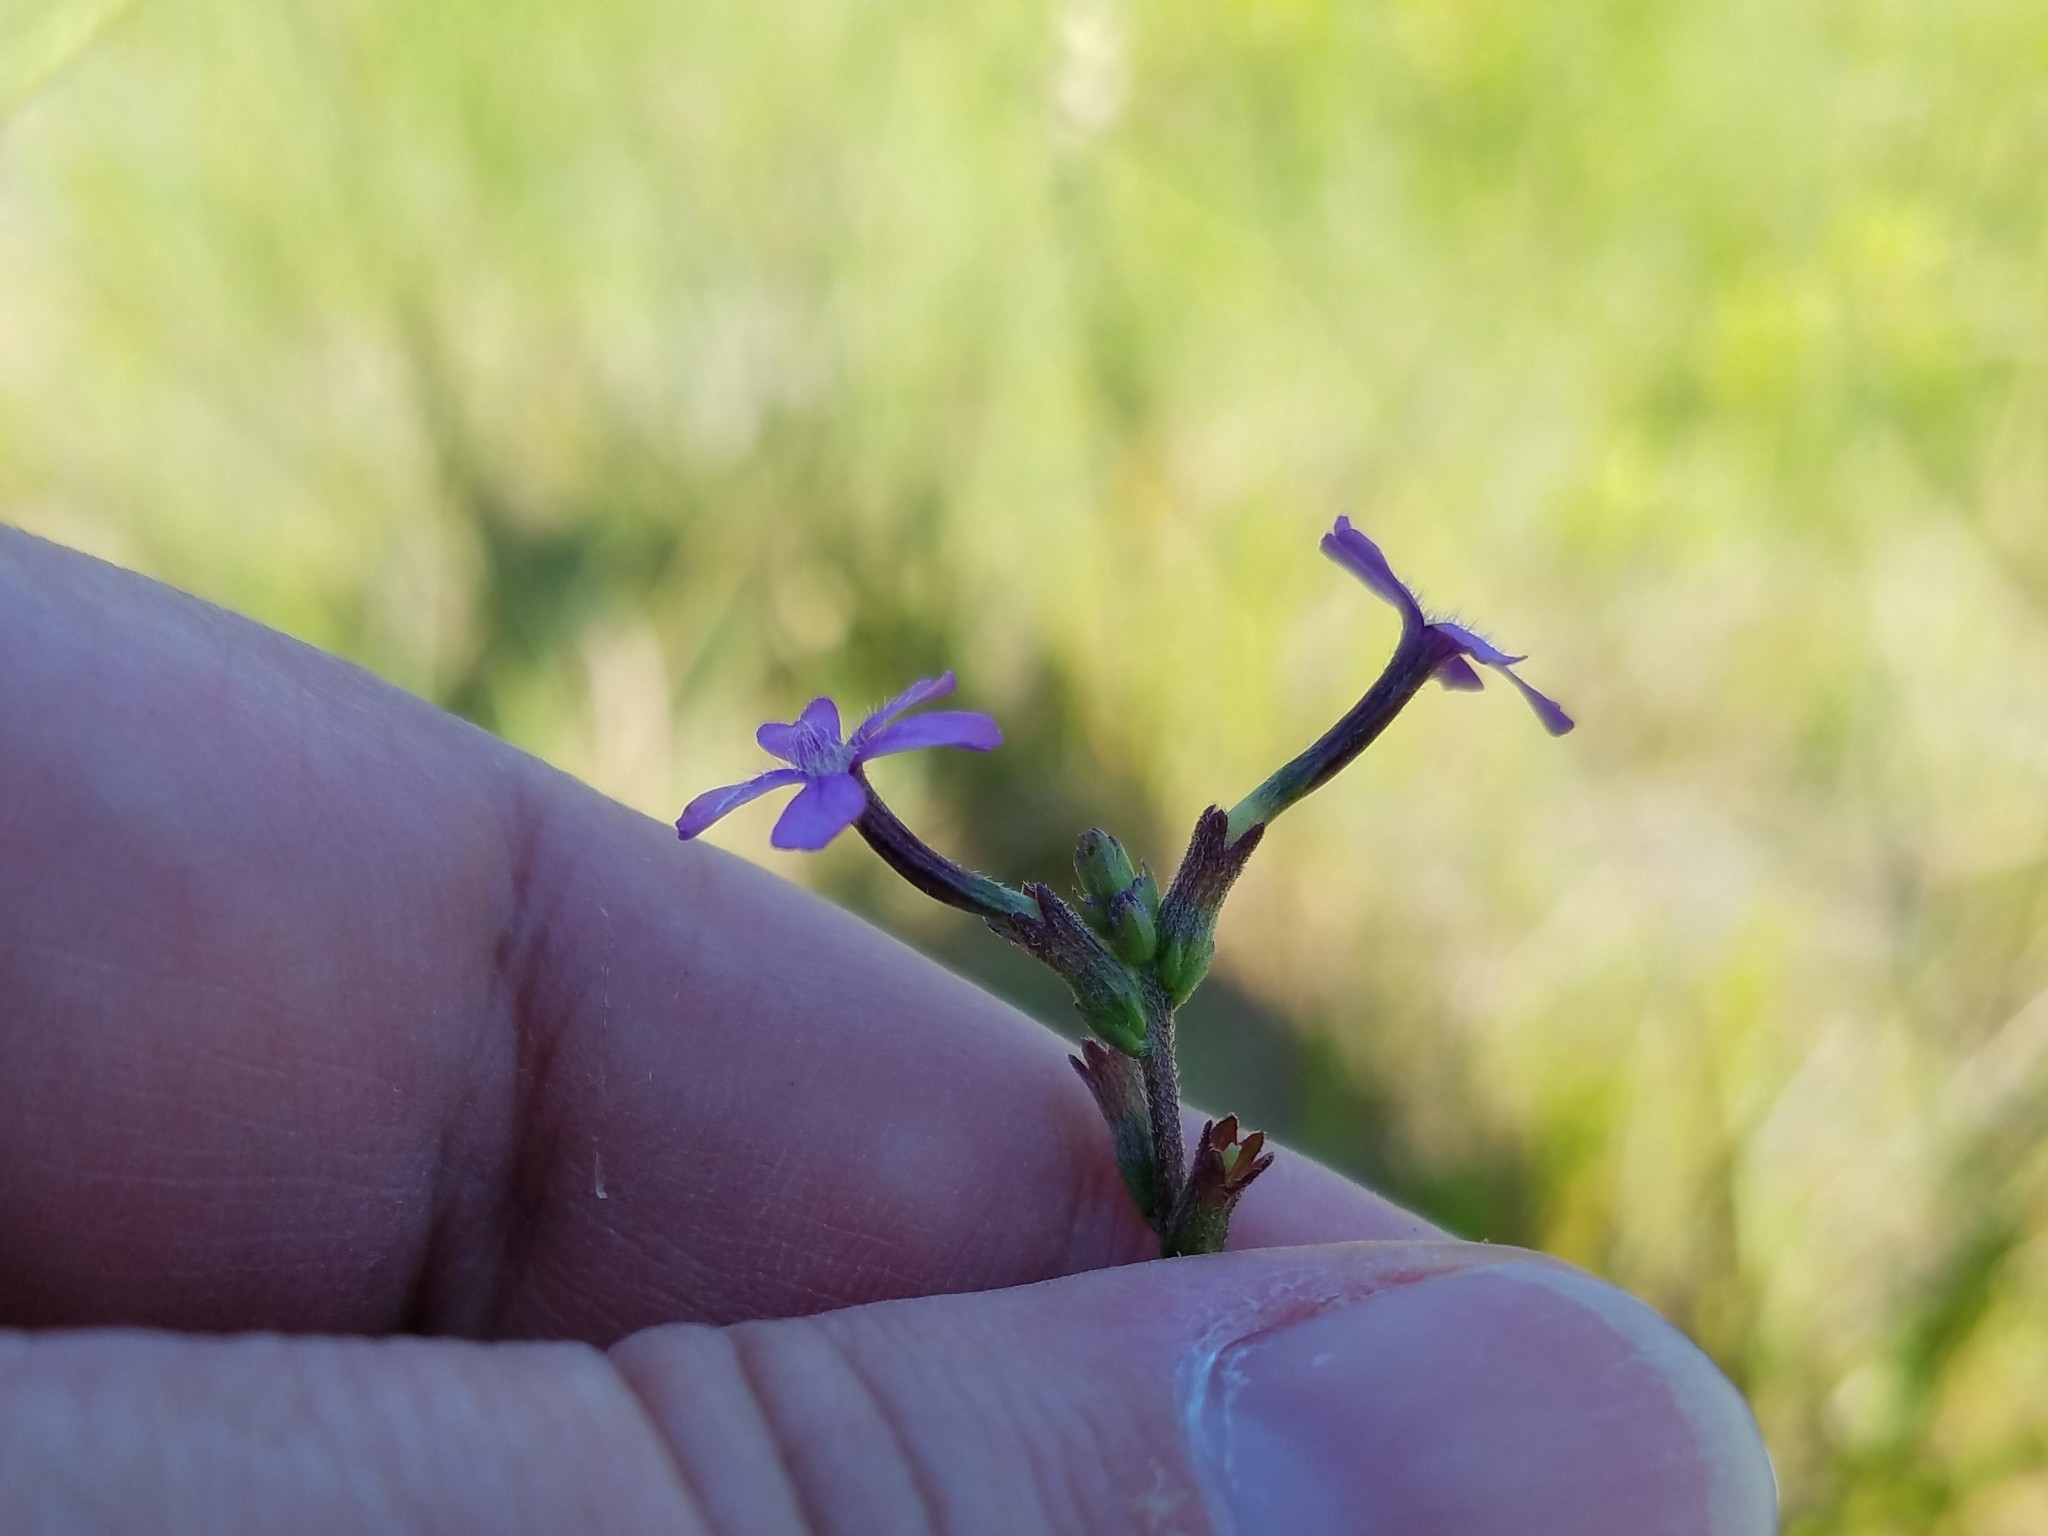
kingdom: Plantae
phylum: Tracheophyta
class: Magnoliopsida
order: Lamiales
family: Orobanchaceae
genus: Buchnera
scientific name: Buchnera floridana
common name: Florida bluehearts
